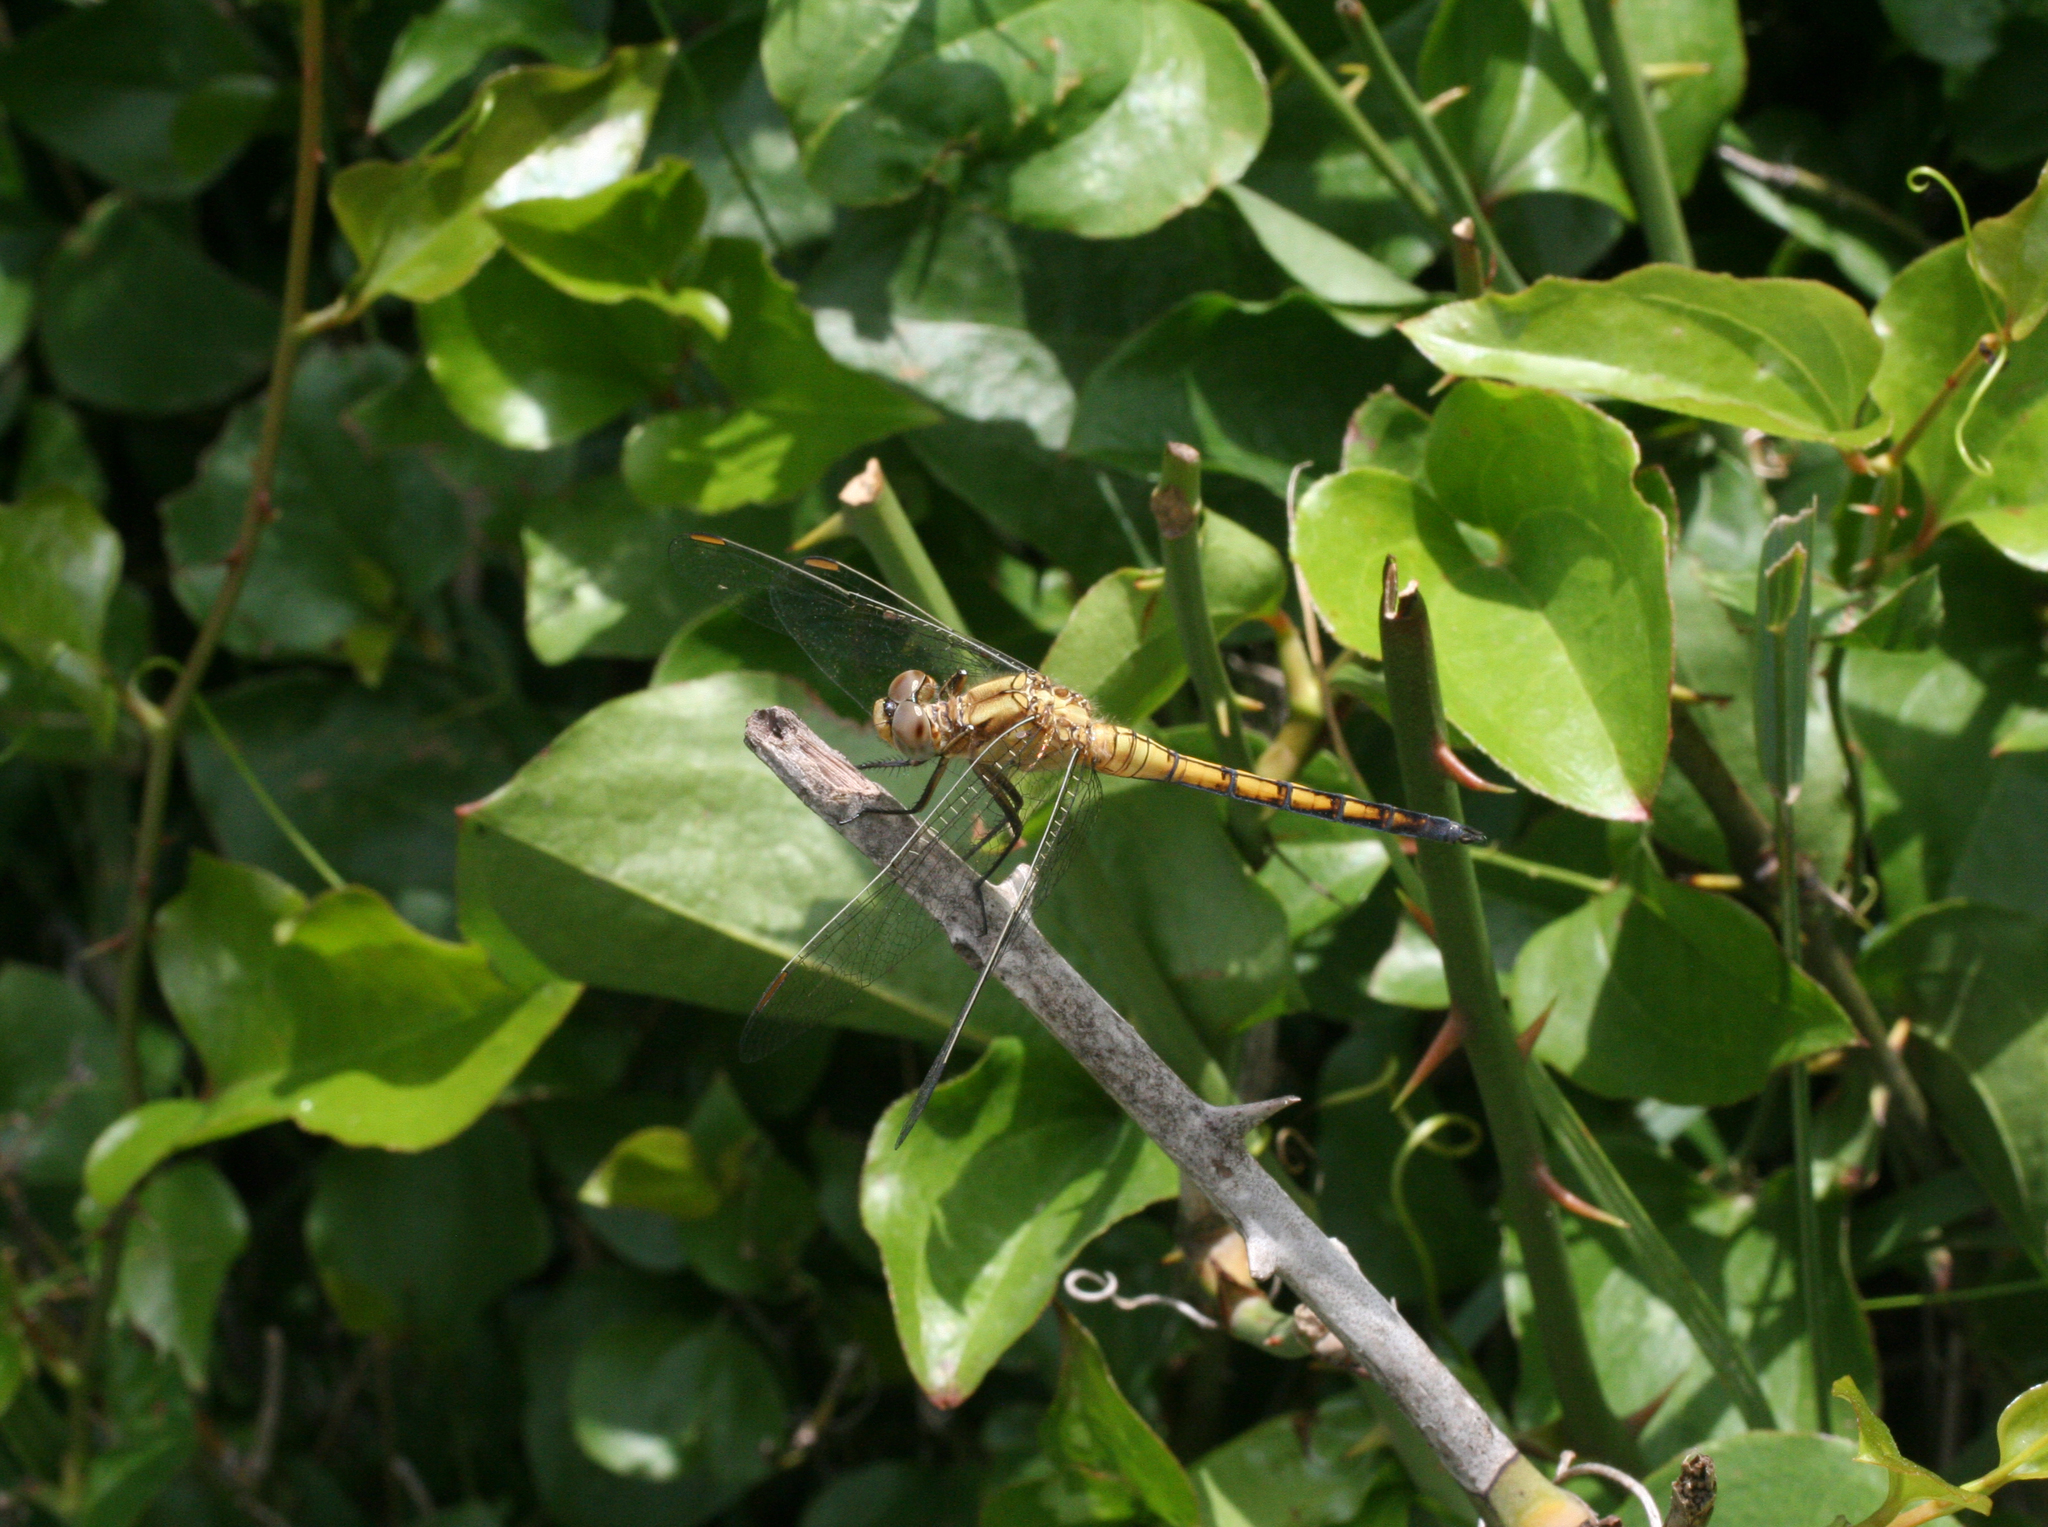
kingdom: Animalia
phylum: Arthropoda
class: Insecta
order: Odonata
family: Libellulidae
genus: Orthetrum
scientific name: Orthetrum coerulescens
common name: Keeled skimmer
